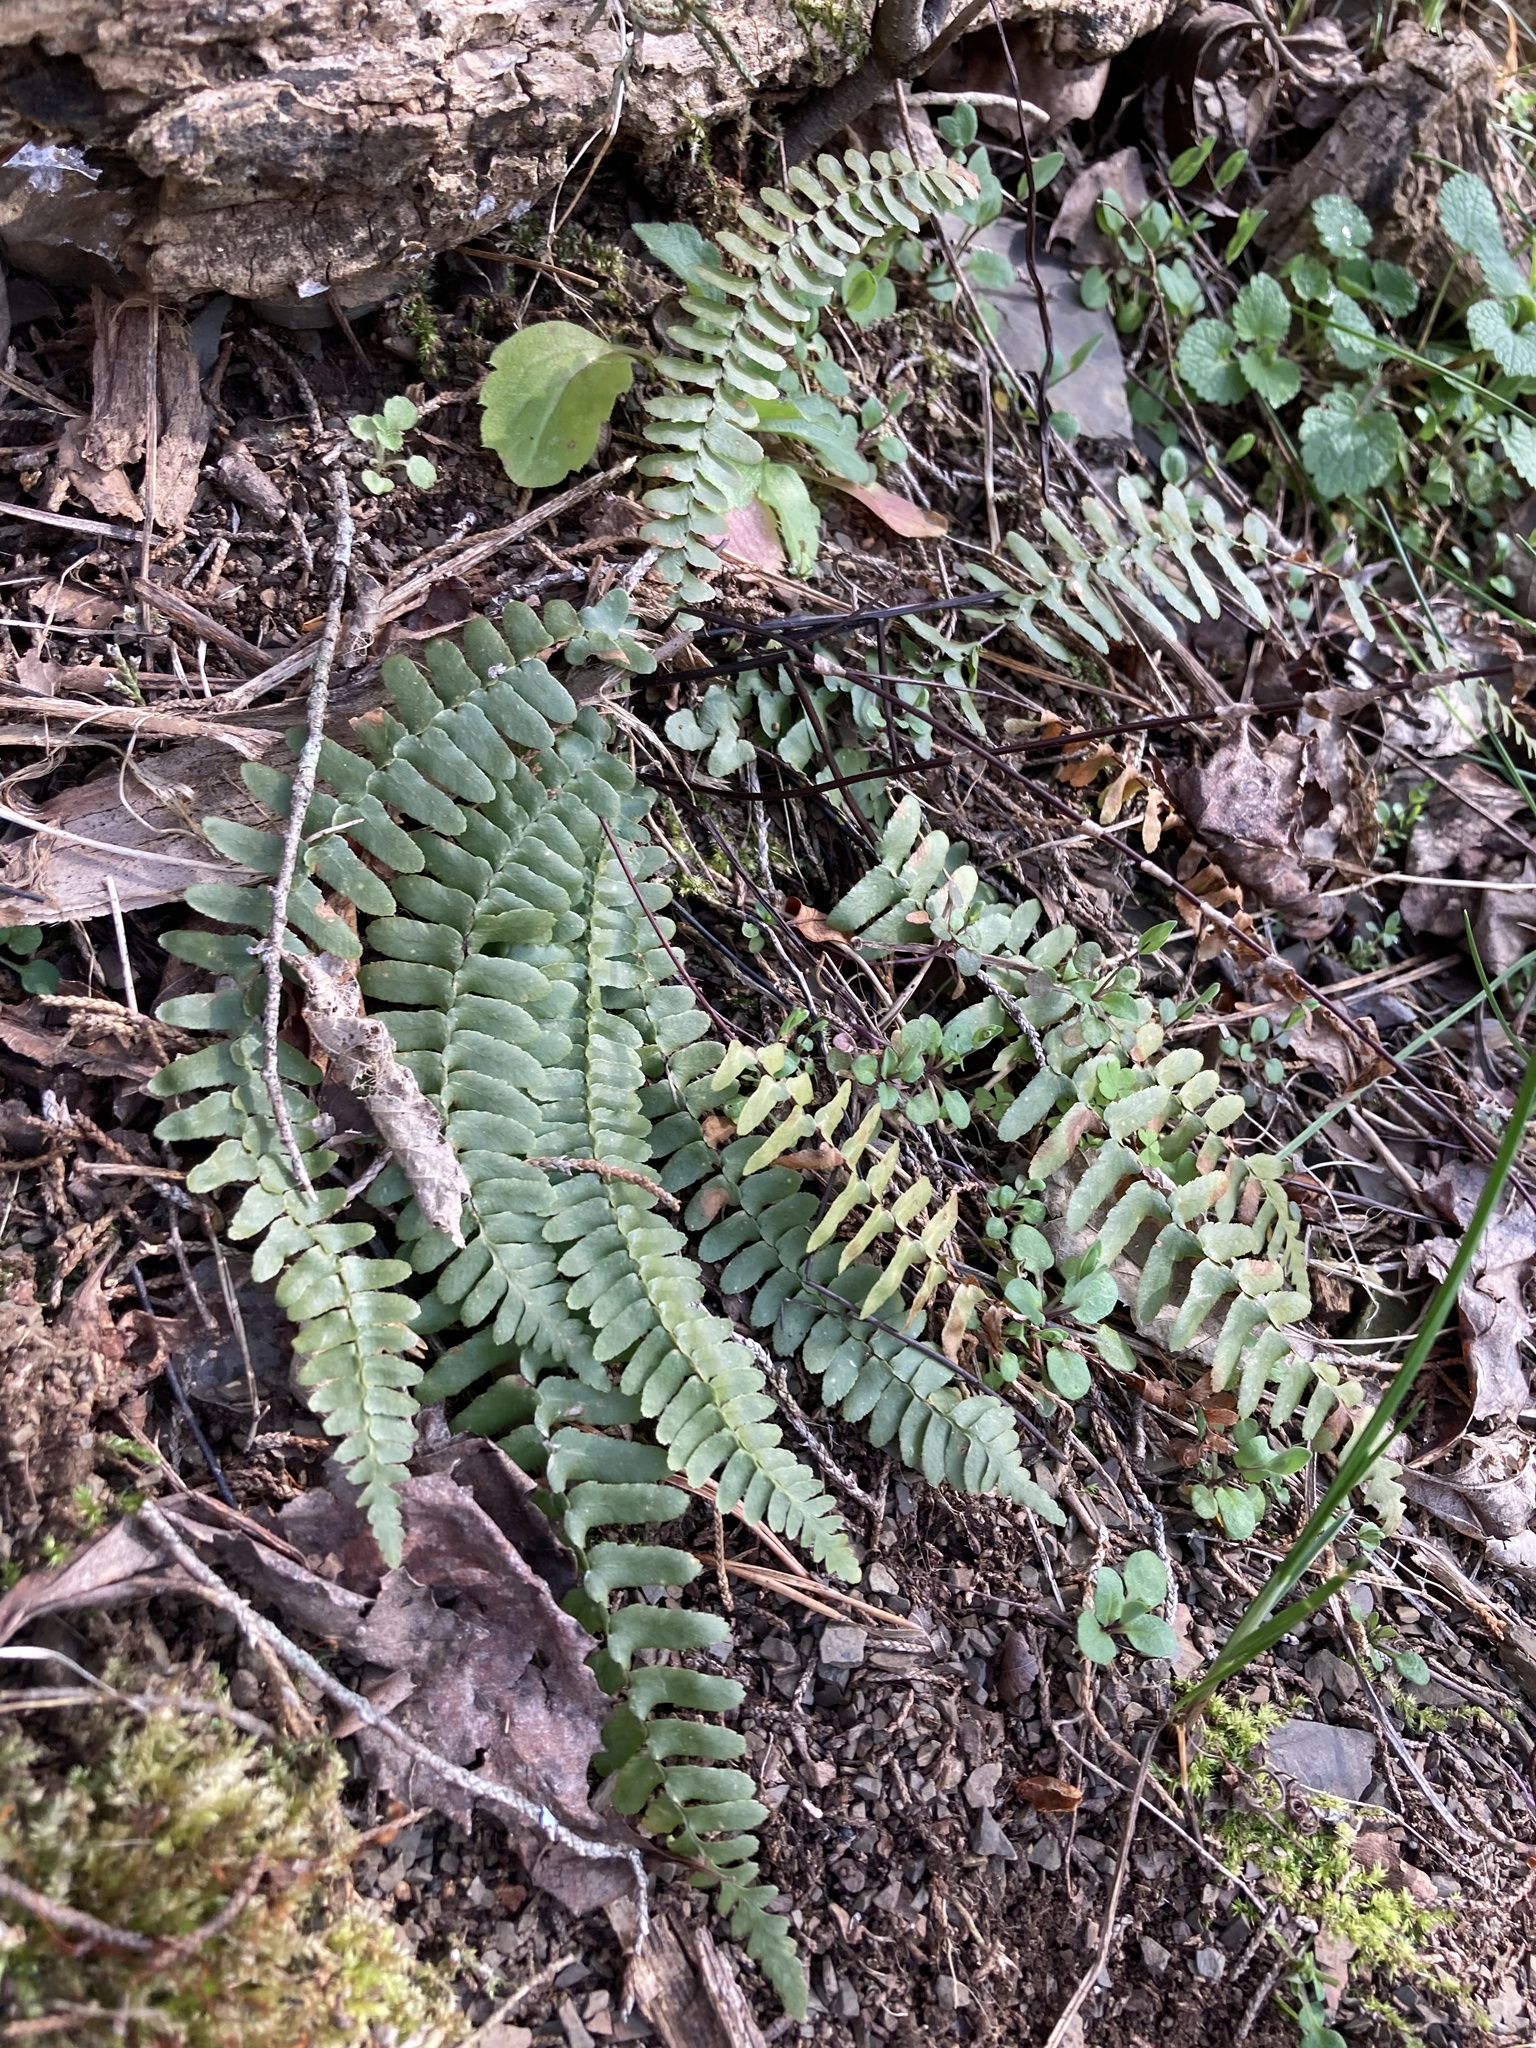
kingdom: Plantae
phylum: Tracheophyta
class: Polypodiopsida
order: Polypodiales
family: Aspleniaceae
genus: Asplenium
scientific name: Asplenium platyneuron
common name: Ebony spleenwort
